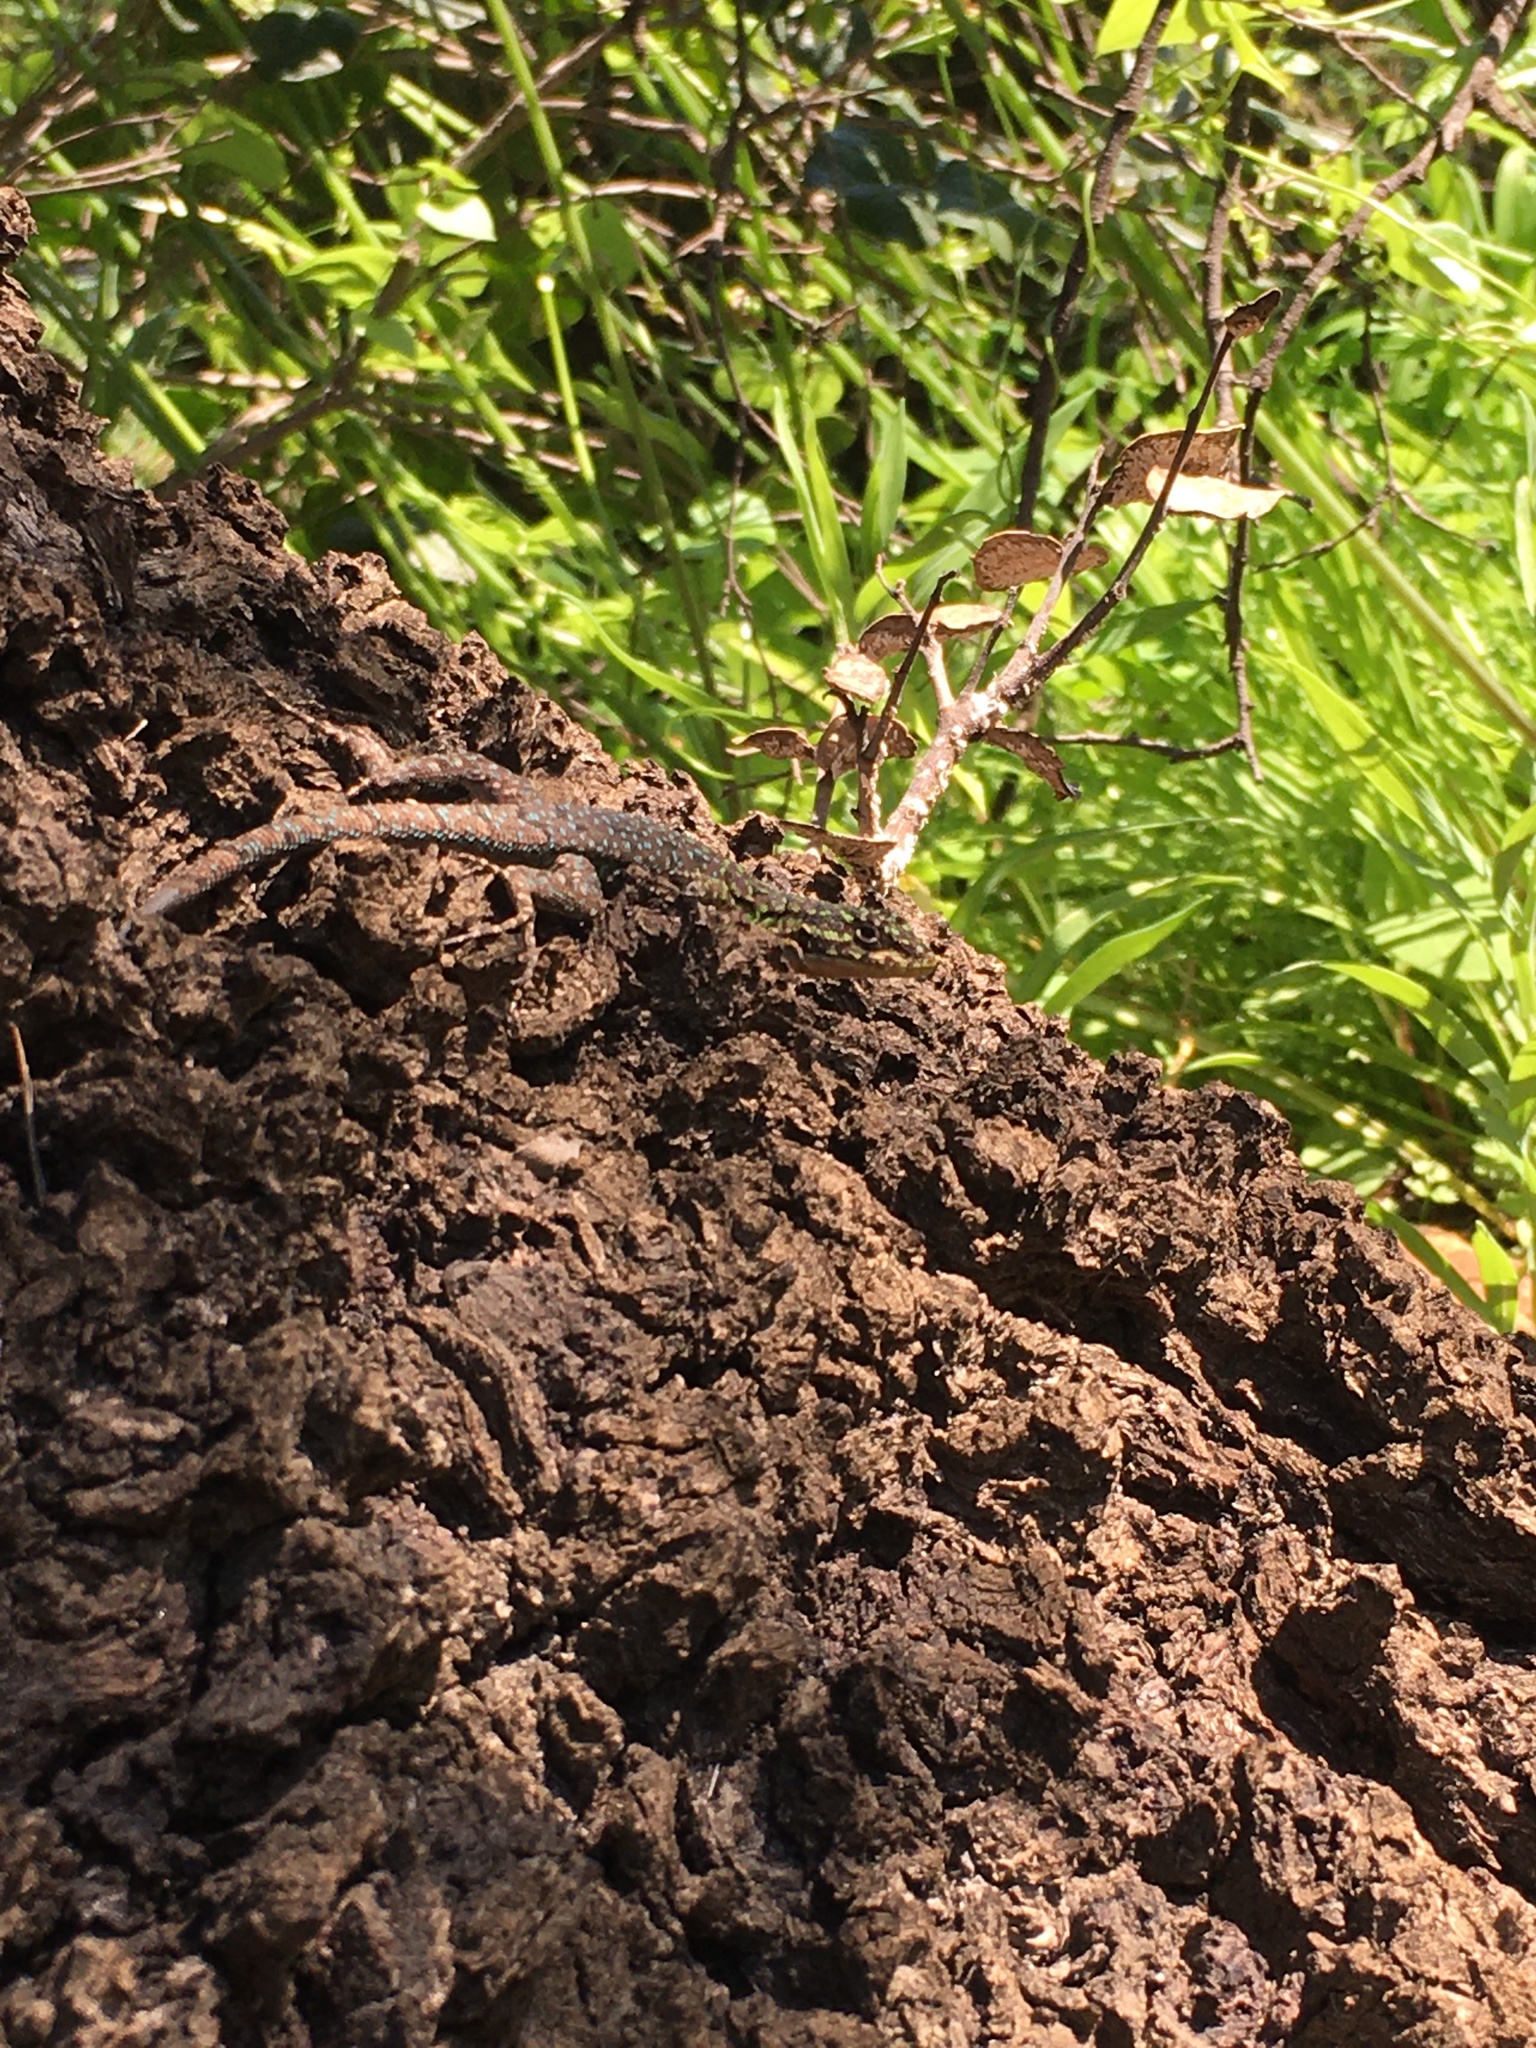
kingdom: Animalia
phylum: Chordata
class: Squamata
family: Liolaemidae
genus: Liolaemus
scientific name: Liolaemus tenuis
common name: Thin tree iguana
